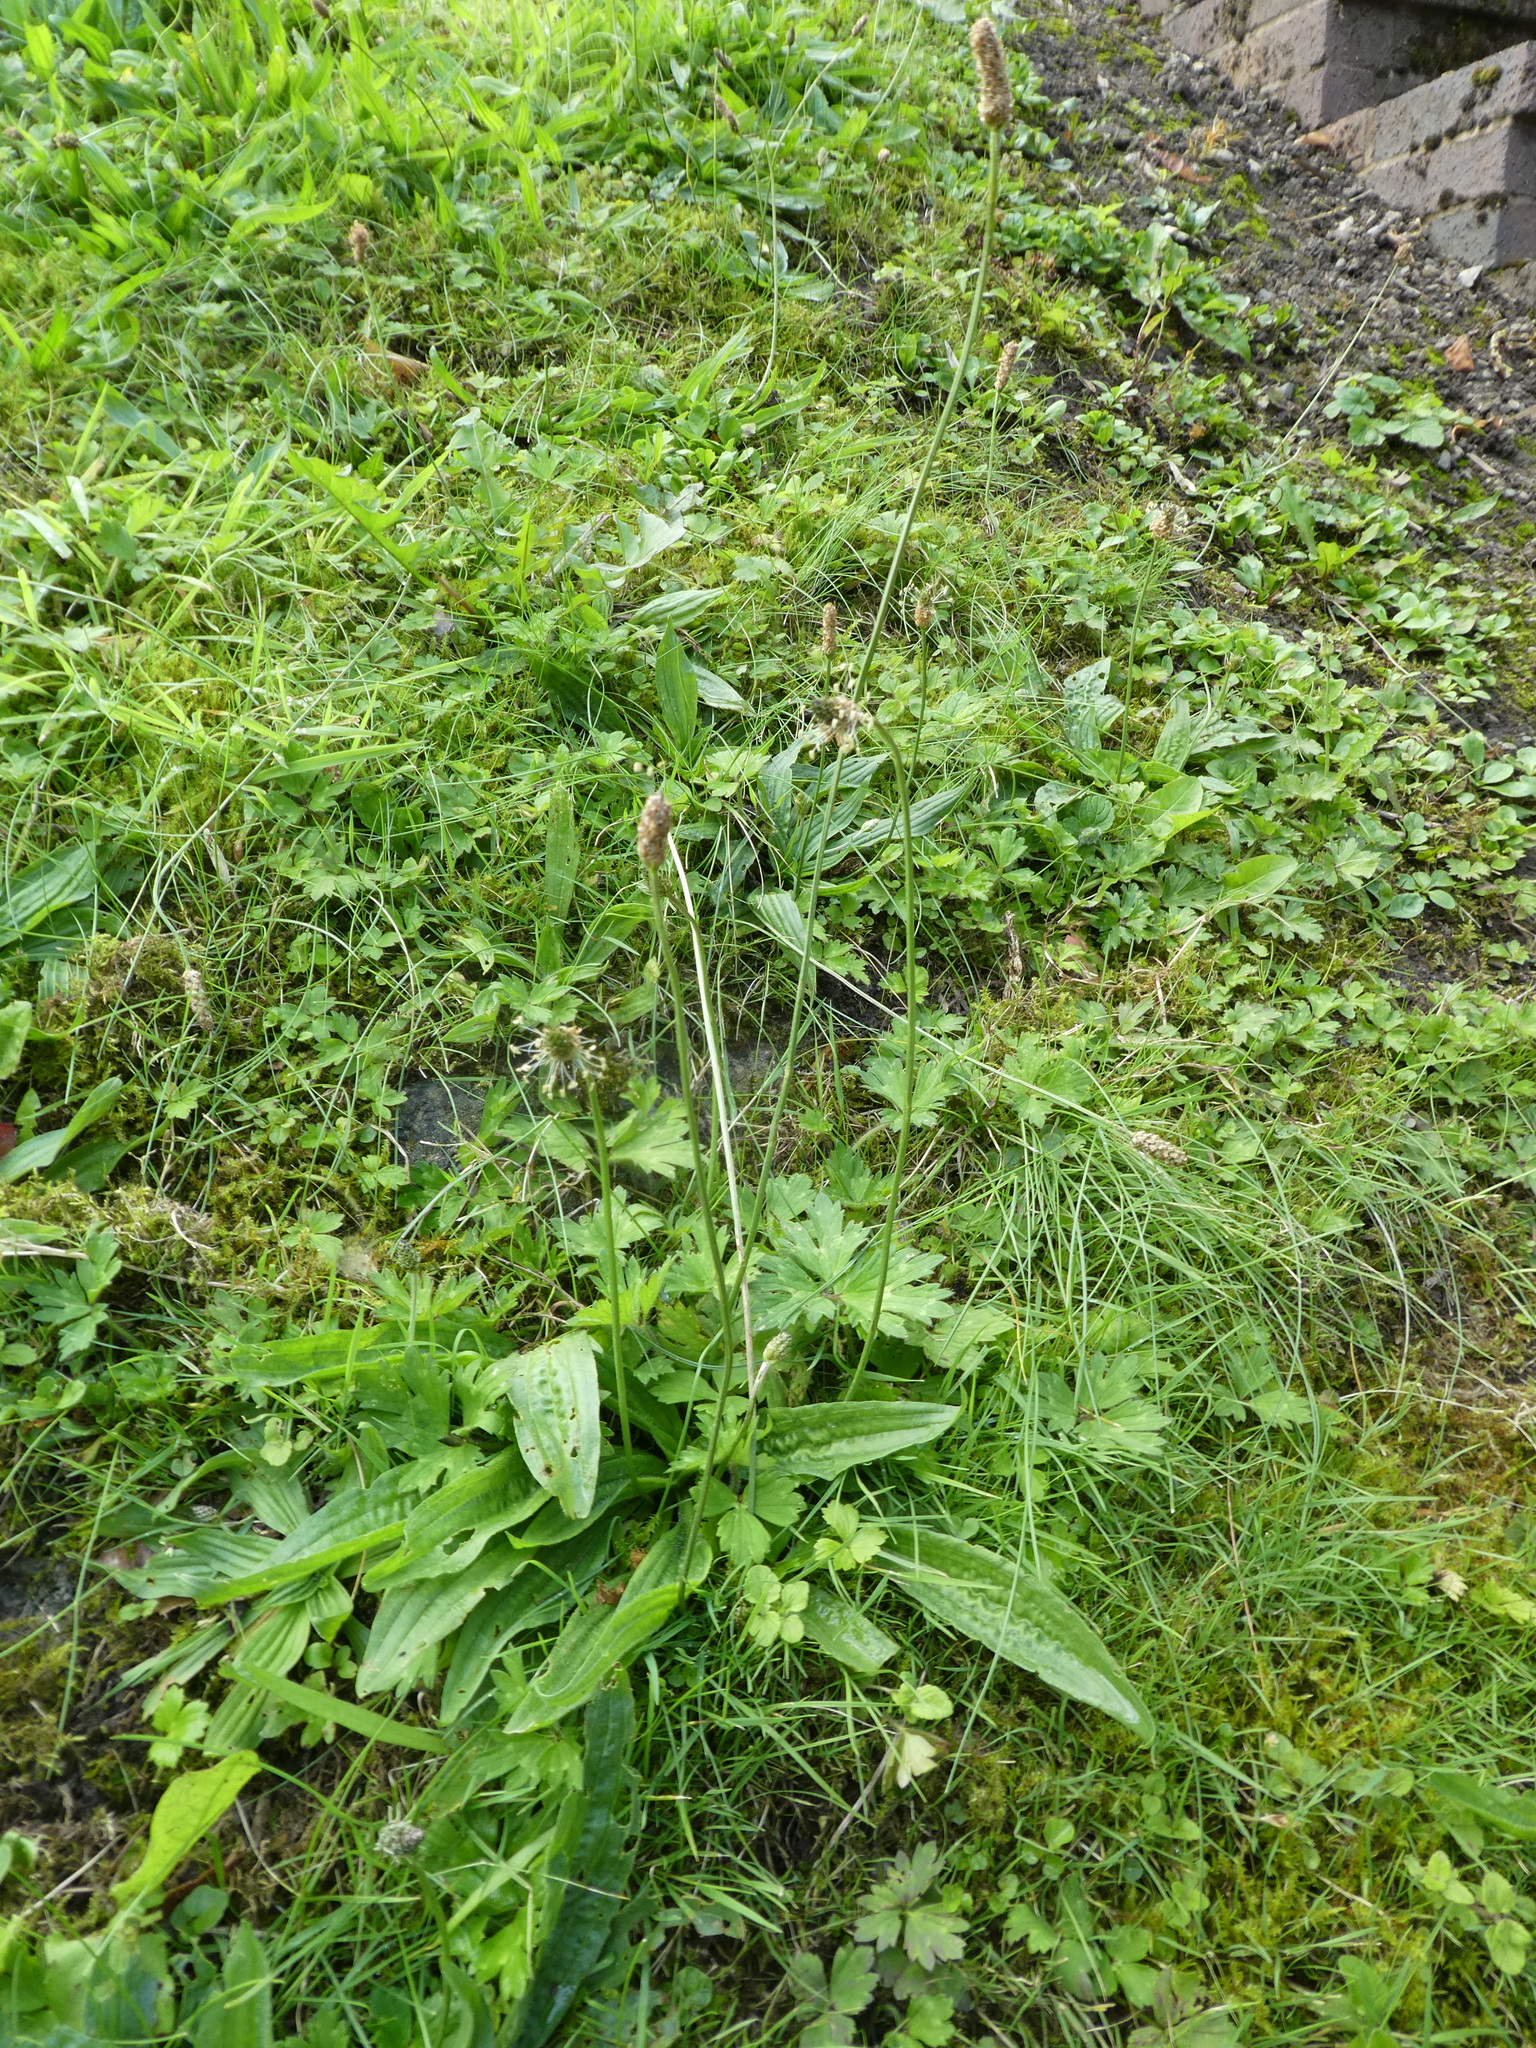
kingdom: Plantae
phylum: Tracheophyta
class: Magnoliopsida
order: Lamiales
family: Plantaginaceae
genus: Plantago
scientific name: Plantago lanceolata
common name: Ribwort plantain
